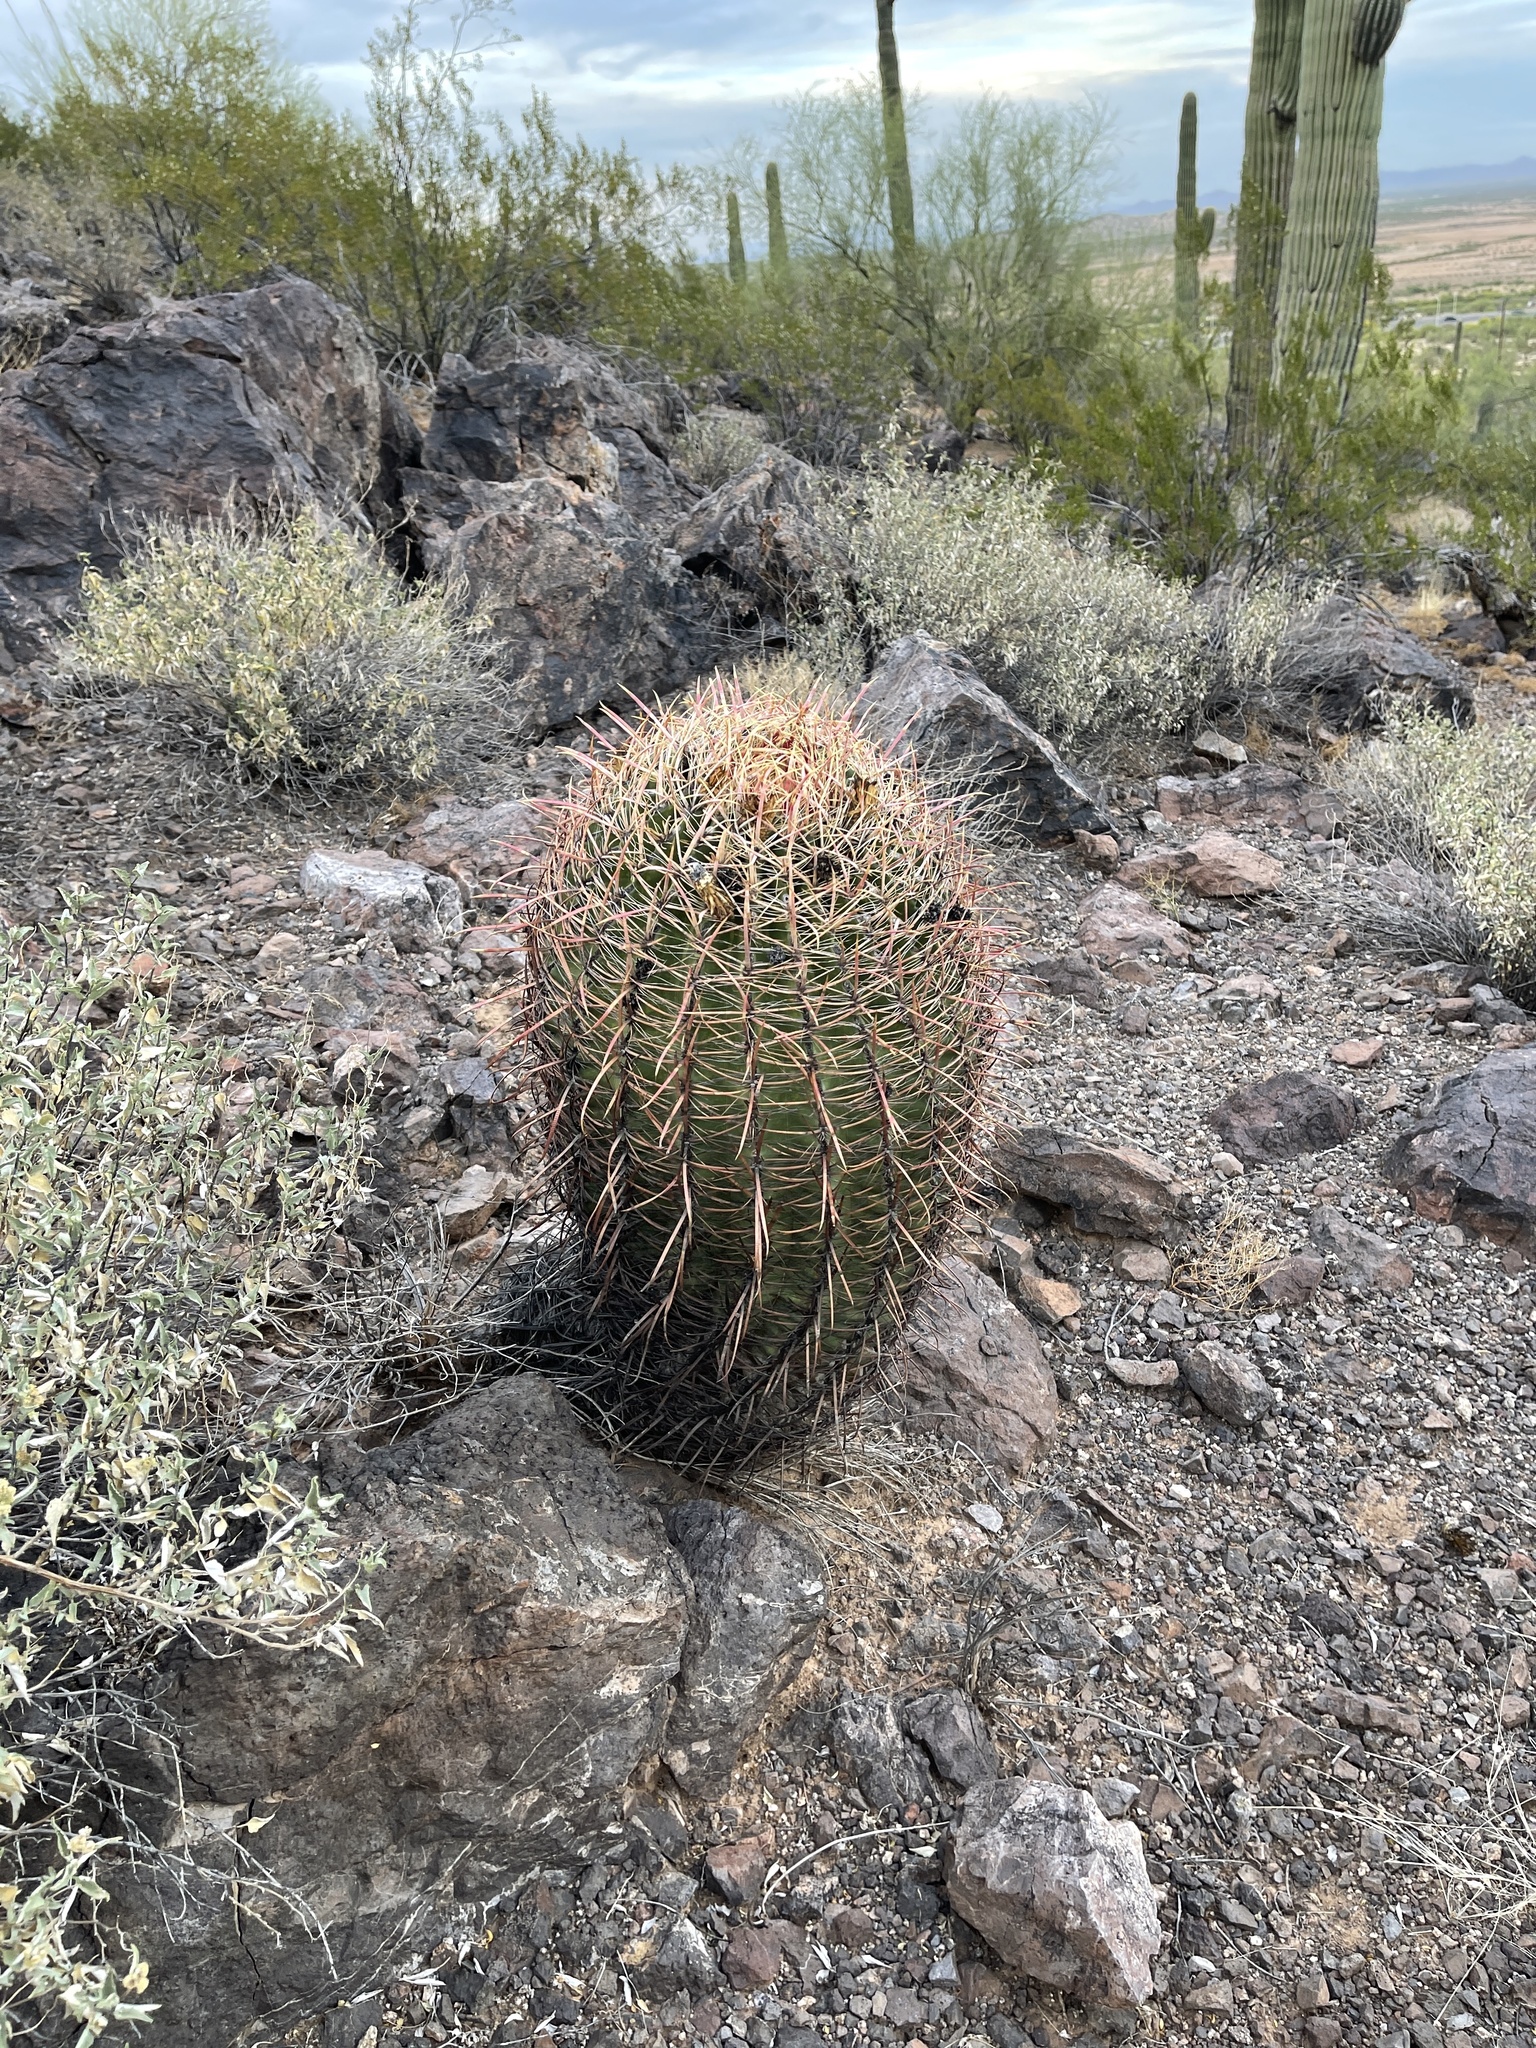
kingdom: Plantae
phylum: Tracheophyta
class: Magnoliopsida
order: Caryophyllales
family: Cactaceae
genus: Ferocactus
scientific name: Ferocactus cylindraceus
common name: California barrel cactus
